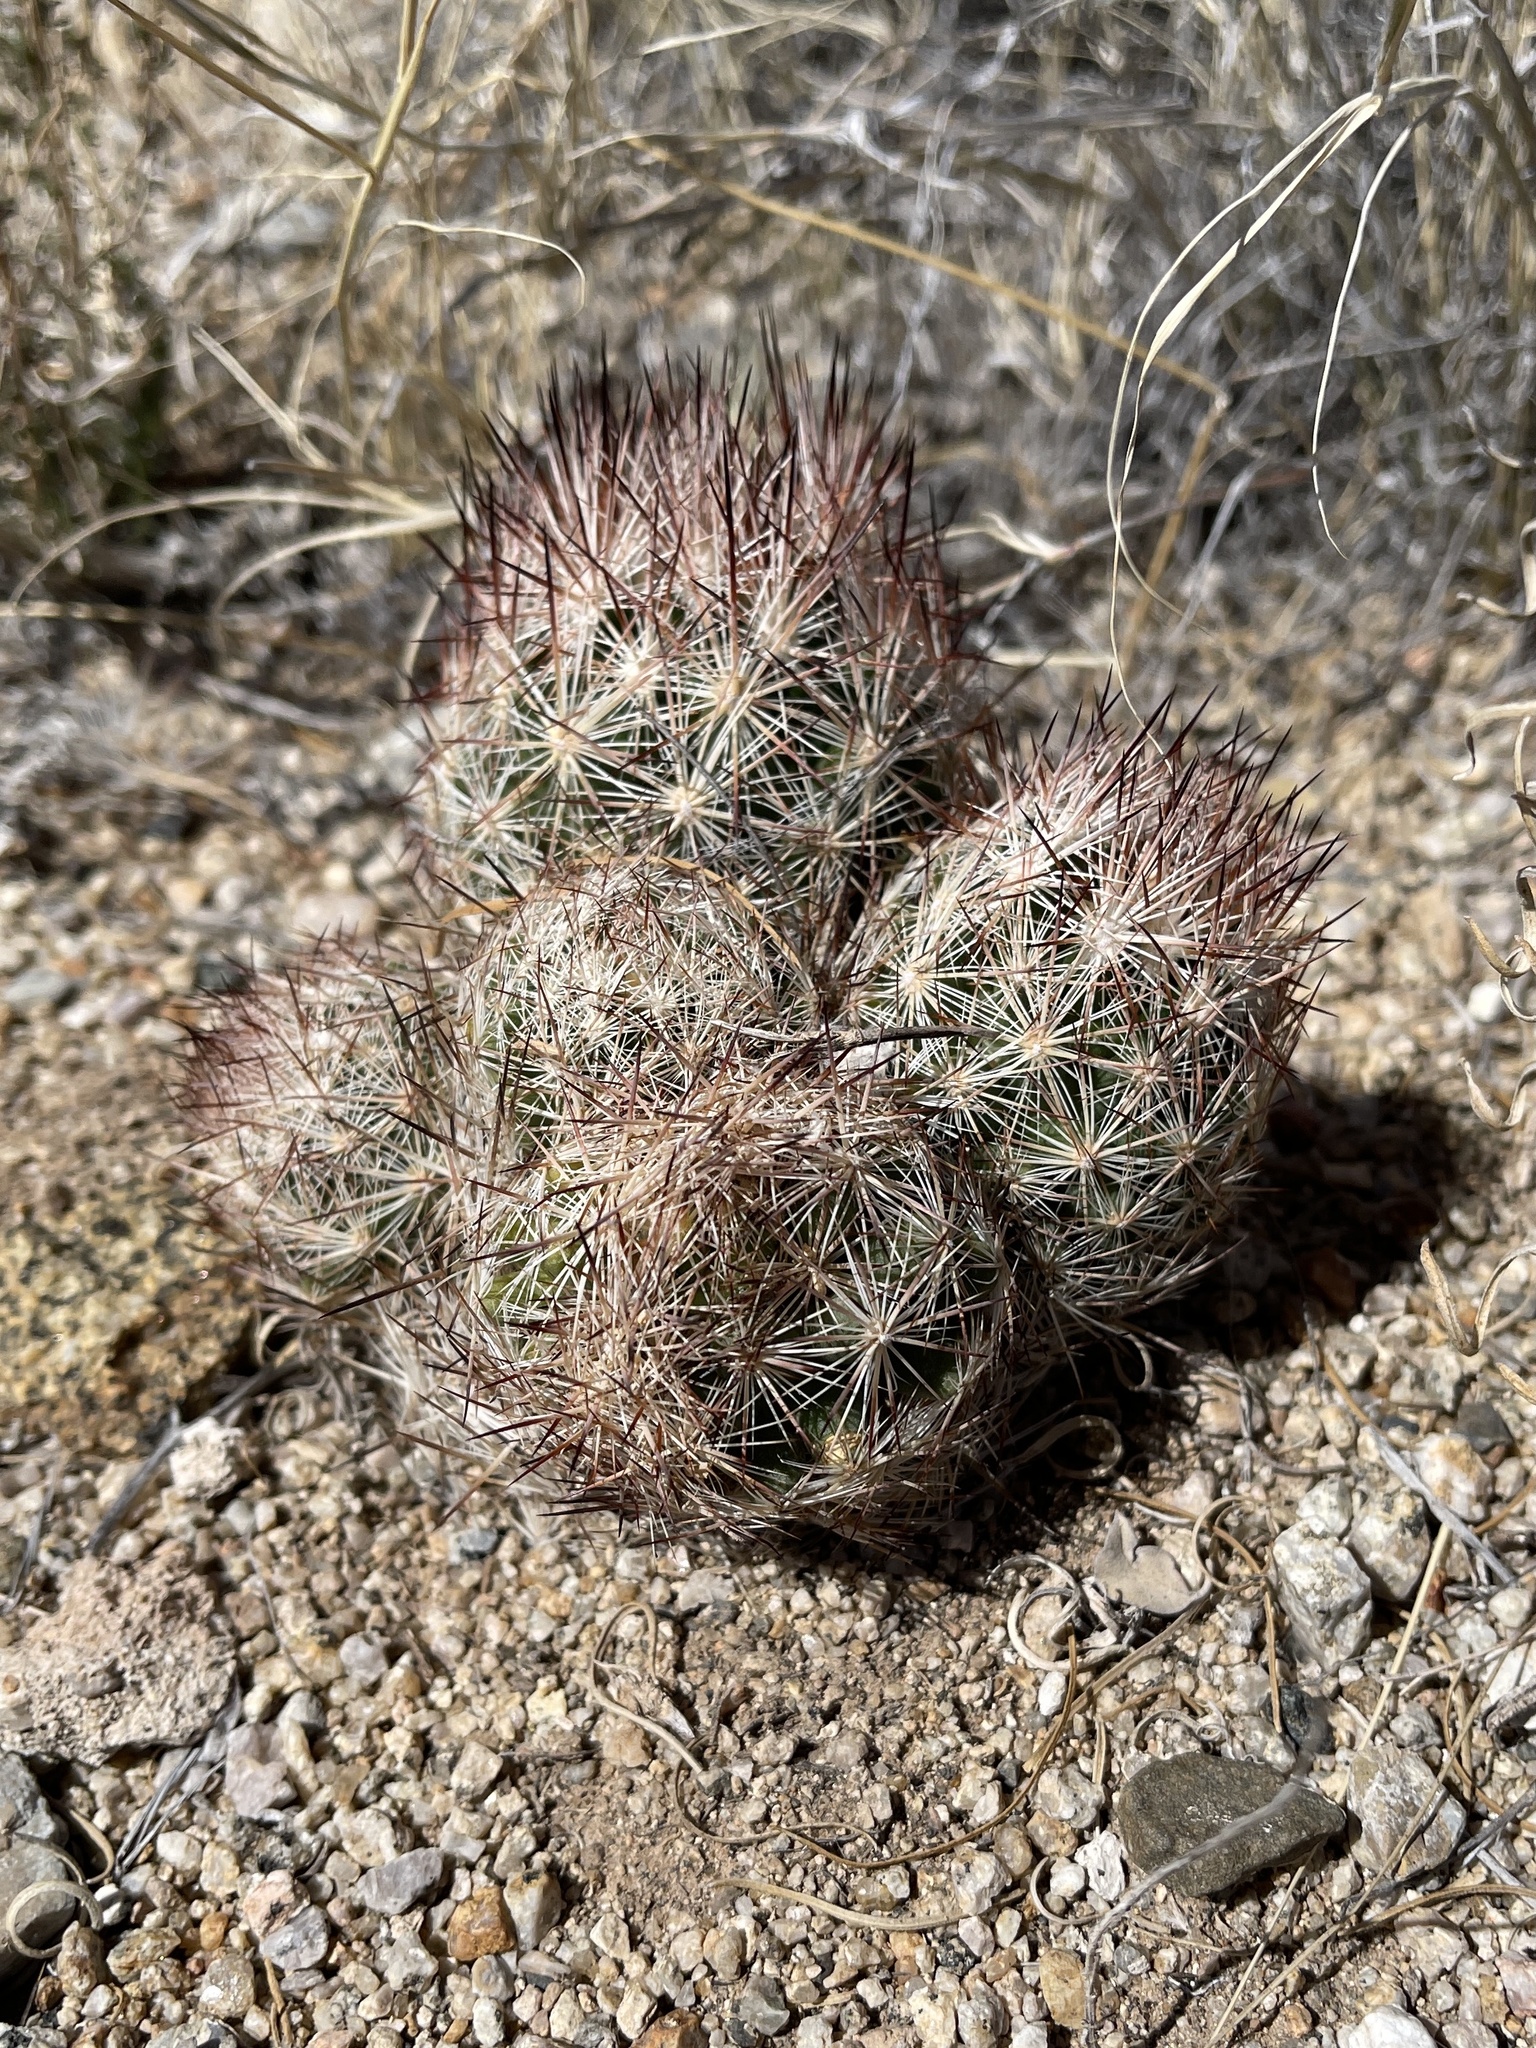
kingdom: Plantae
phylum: Tracheophyta
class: Magnoliopsida
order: Caryophyllales
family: Cactaceae
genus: Pelecyphora
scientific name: Pelecyphora vivipara
